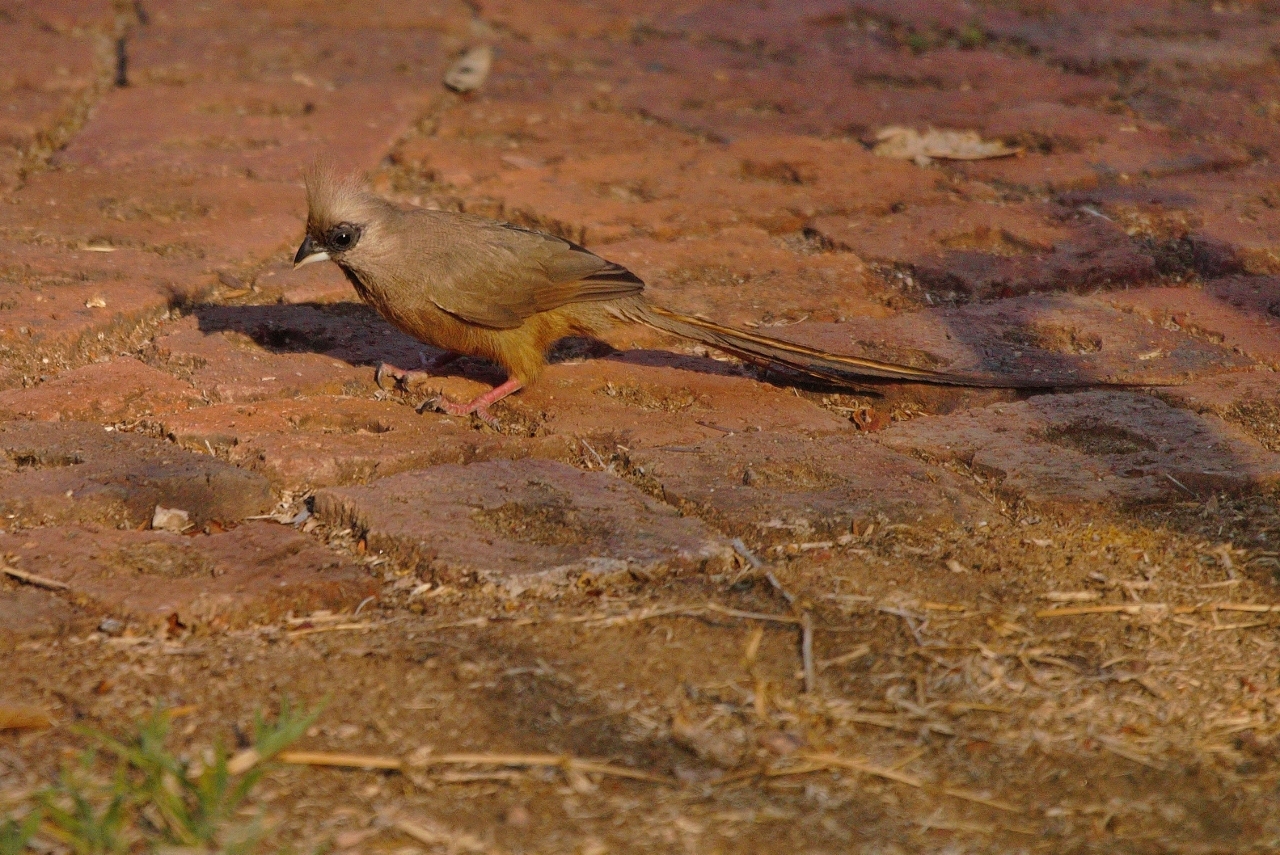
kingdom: Animalia
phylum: Chordata
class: Aves
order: Coliiformes
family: Coliidae
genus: Colius
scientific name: Colius striatus
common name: Speckled mousebird
